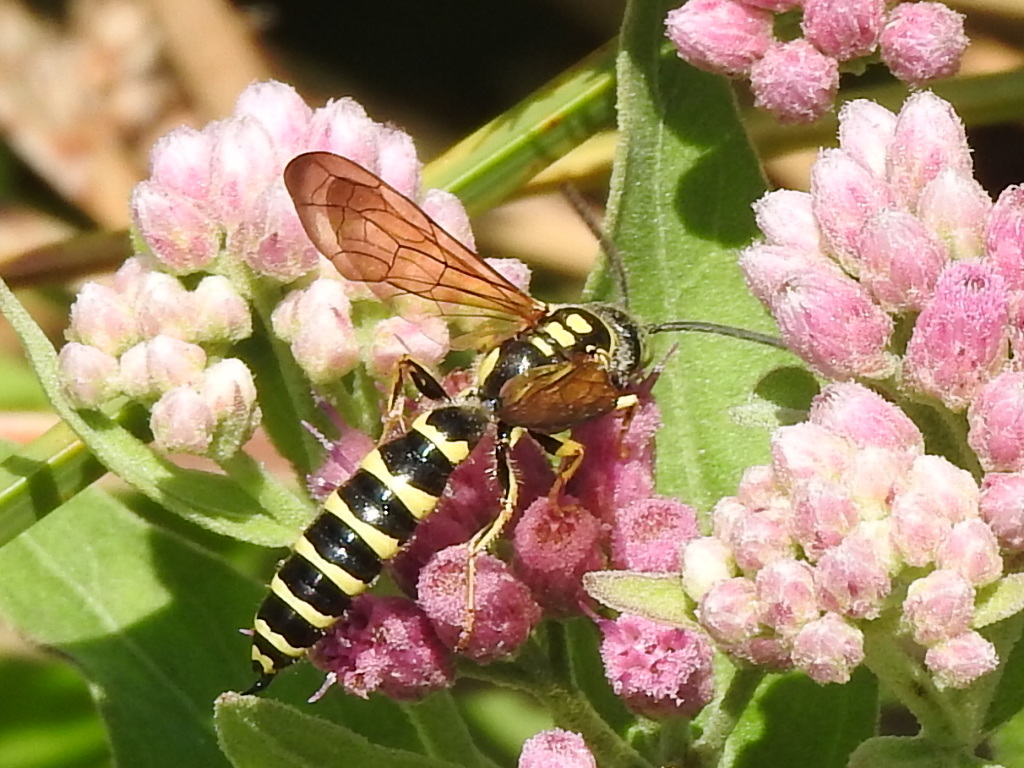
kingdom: Animalia
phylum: Arthropoda
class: Insecta
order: Hymenoptera
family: Tiphiidae
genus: Myzinum
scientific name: Myzinum quinquecinctum
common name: Five-banded thynnid wasp
